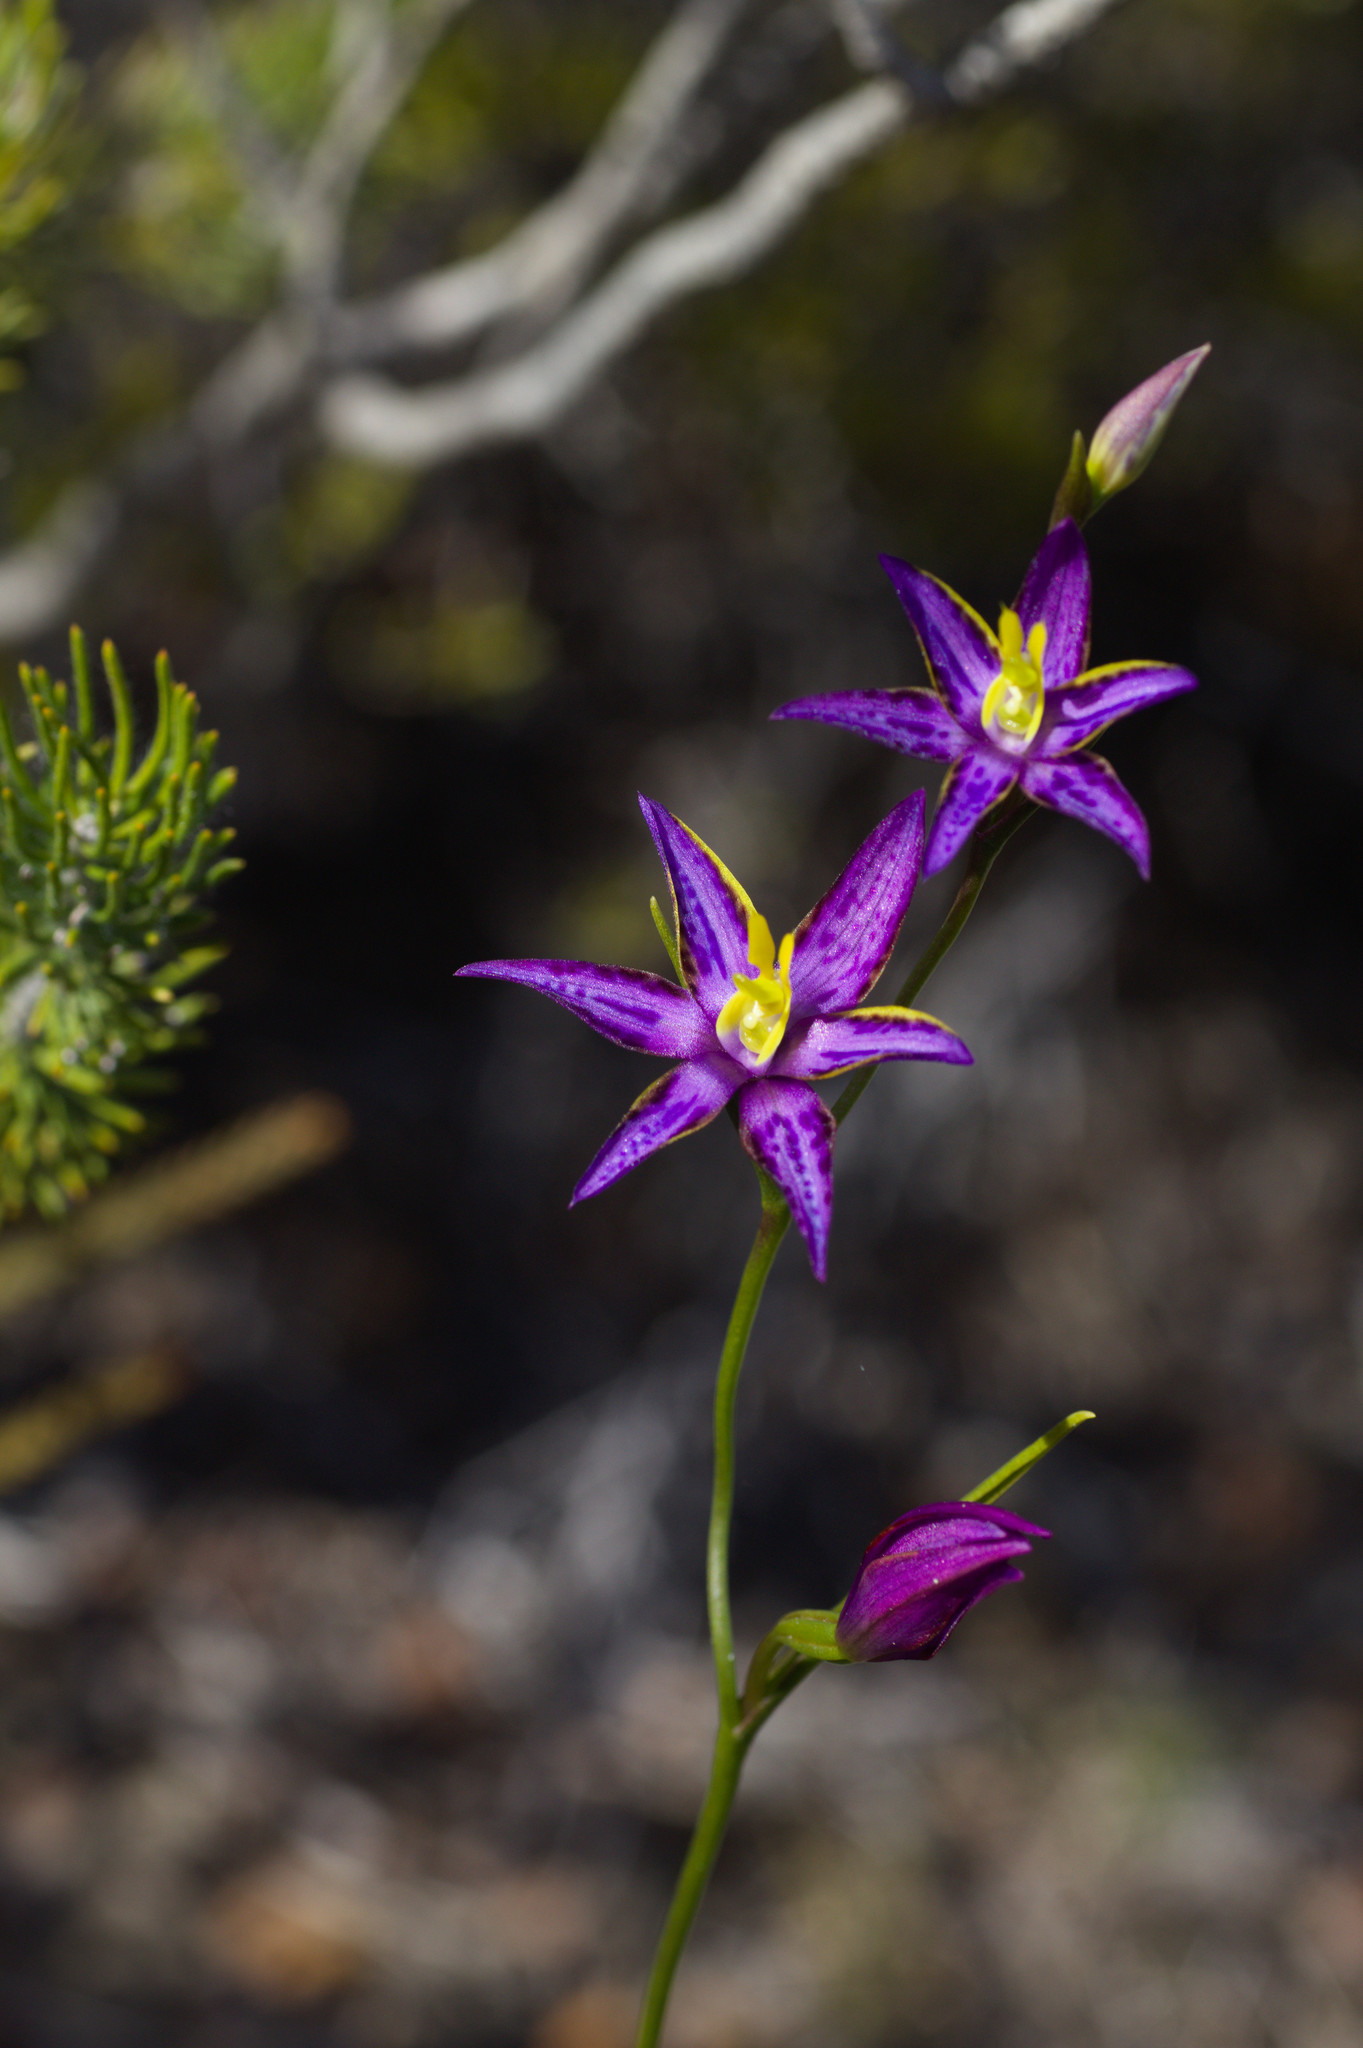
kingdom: Plantae
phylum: Tracheophyta
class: Liliopsida
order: Asparagales
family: Orchidaceae
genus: Thelymitra
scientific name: Thelymitra apiculata
